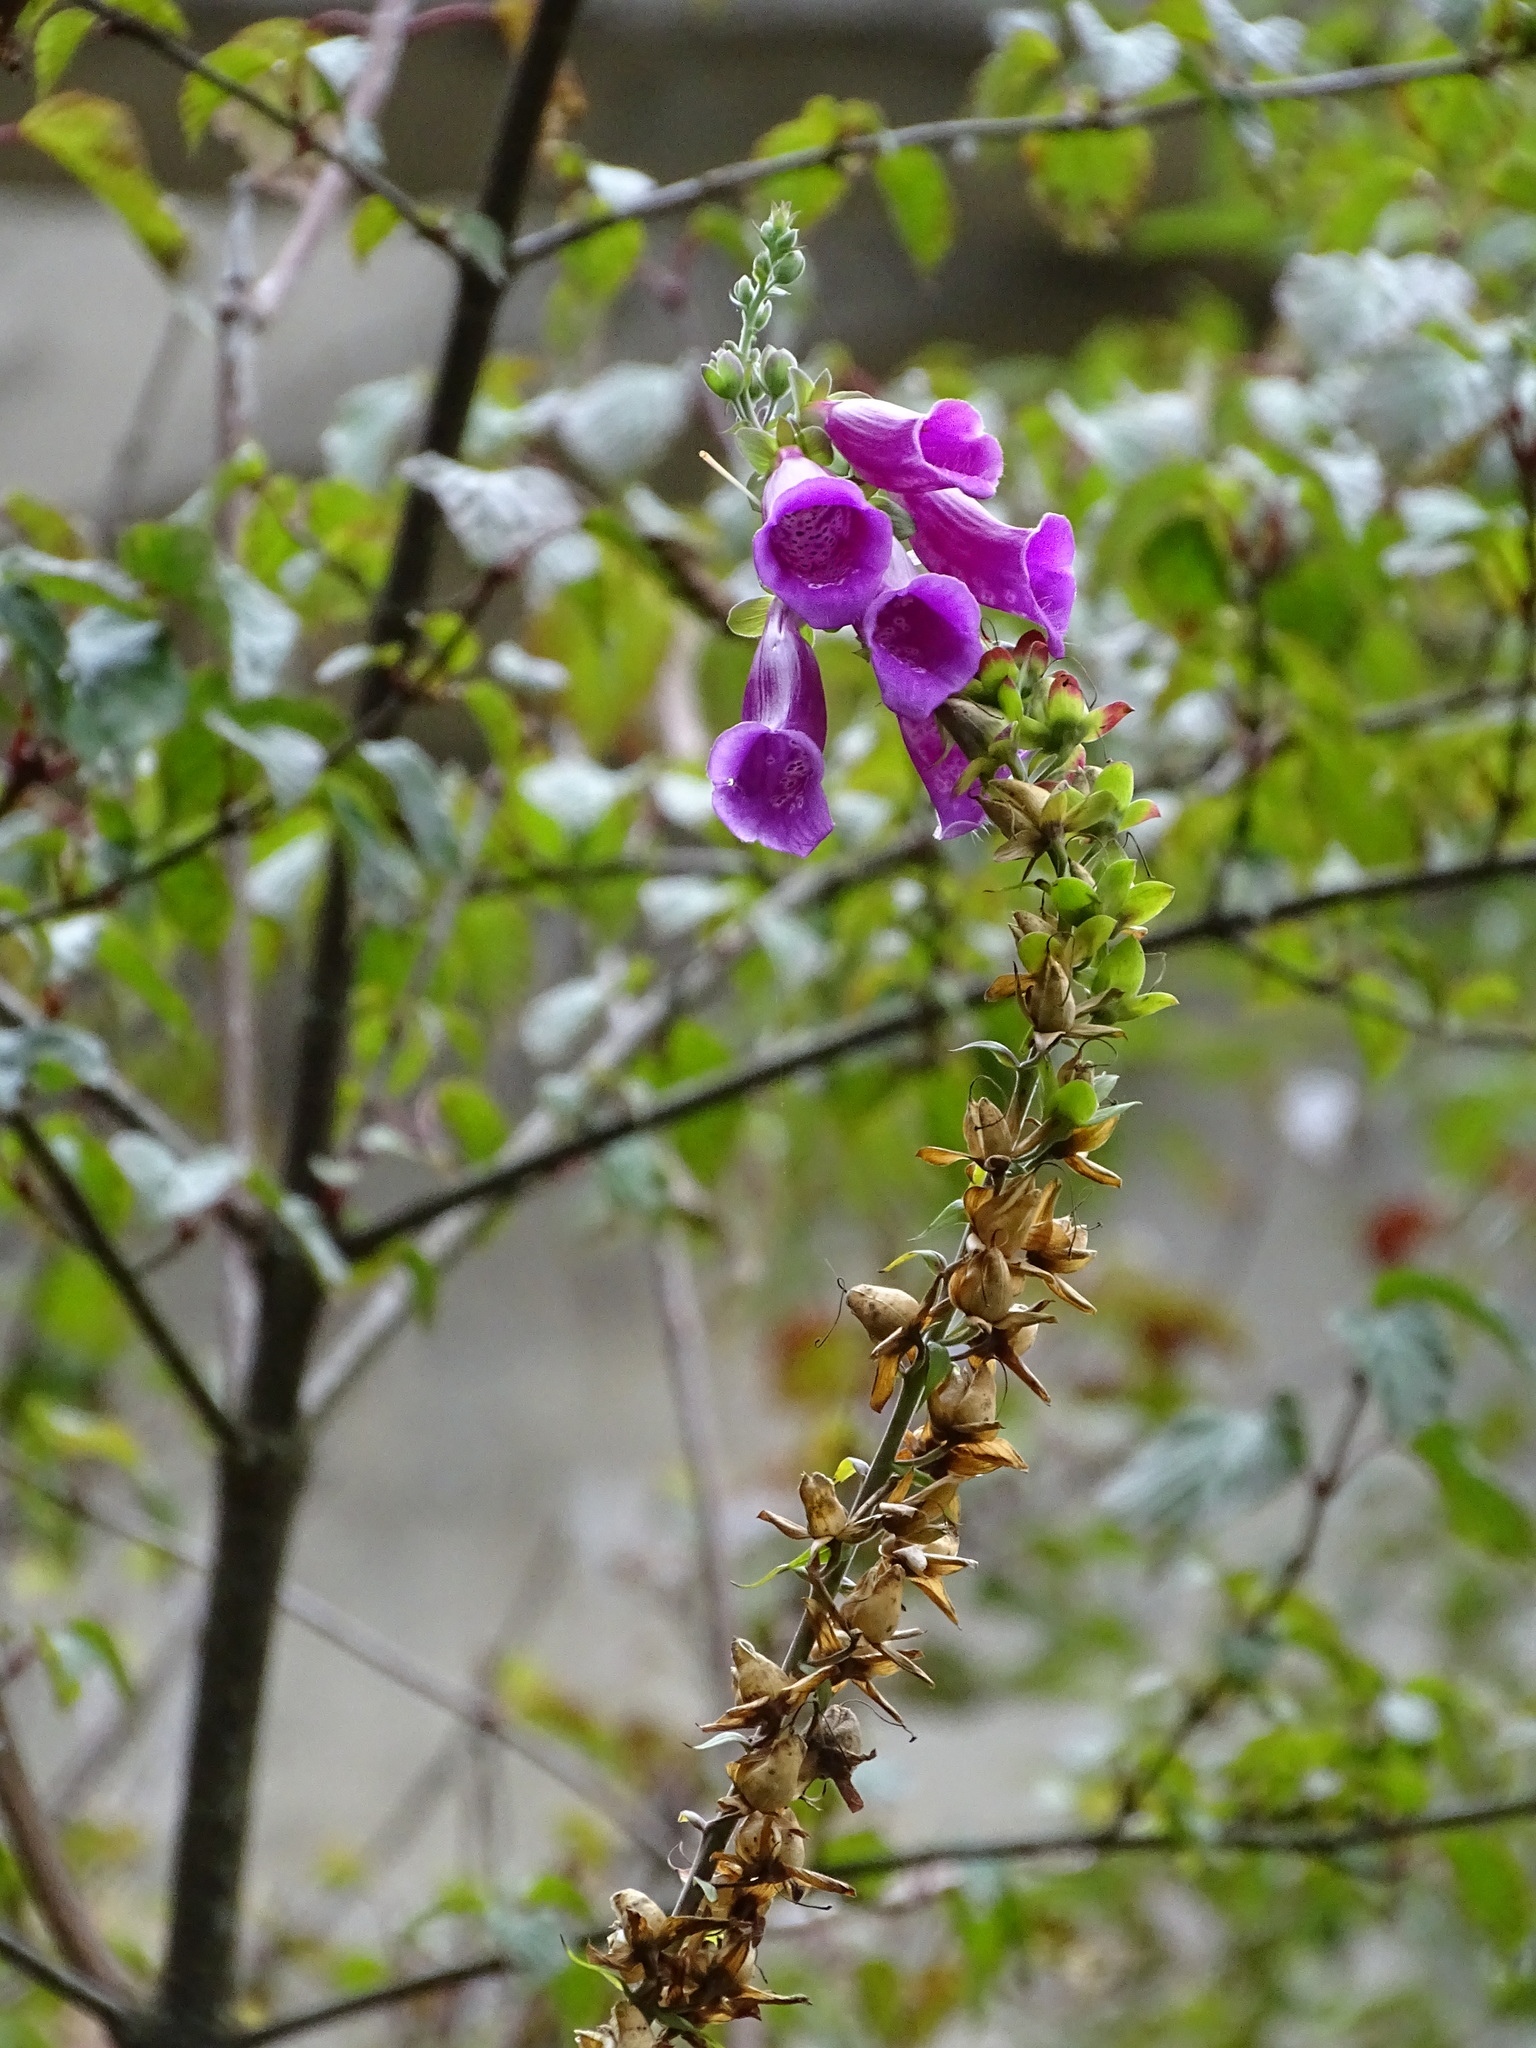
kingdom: Plantae
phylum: Tracheophyta
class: Magnoliopsida
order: Lamiales
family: Plantaginaceae
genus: Digitalis
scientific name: Digitalis purpurea
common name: Foxglove
